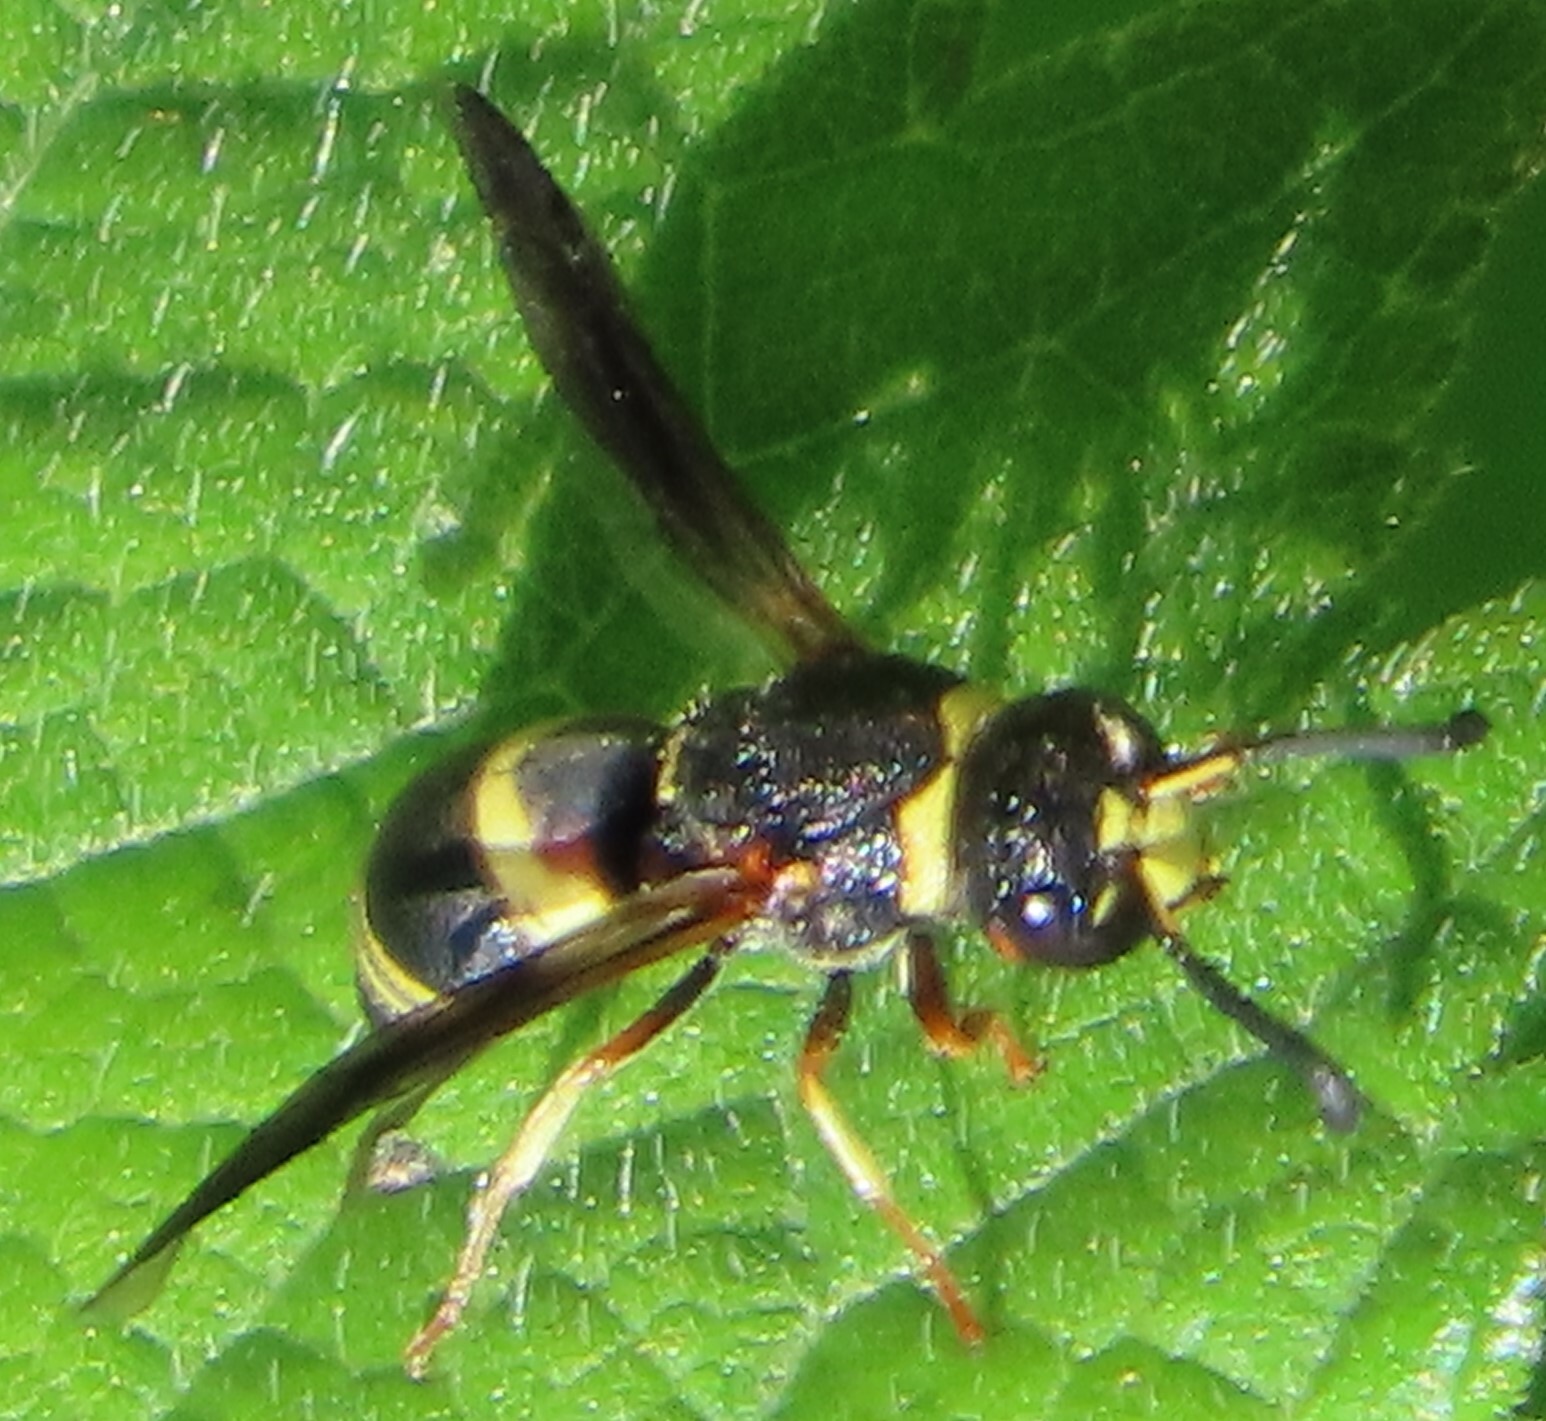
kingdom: Animalia
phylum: Arthropoda
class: Insecta
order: Hymenoptera
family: Eumenidae
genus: Euodynerus
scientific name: Euodynerus hidalgo
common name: Wasp
